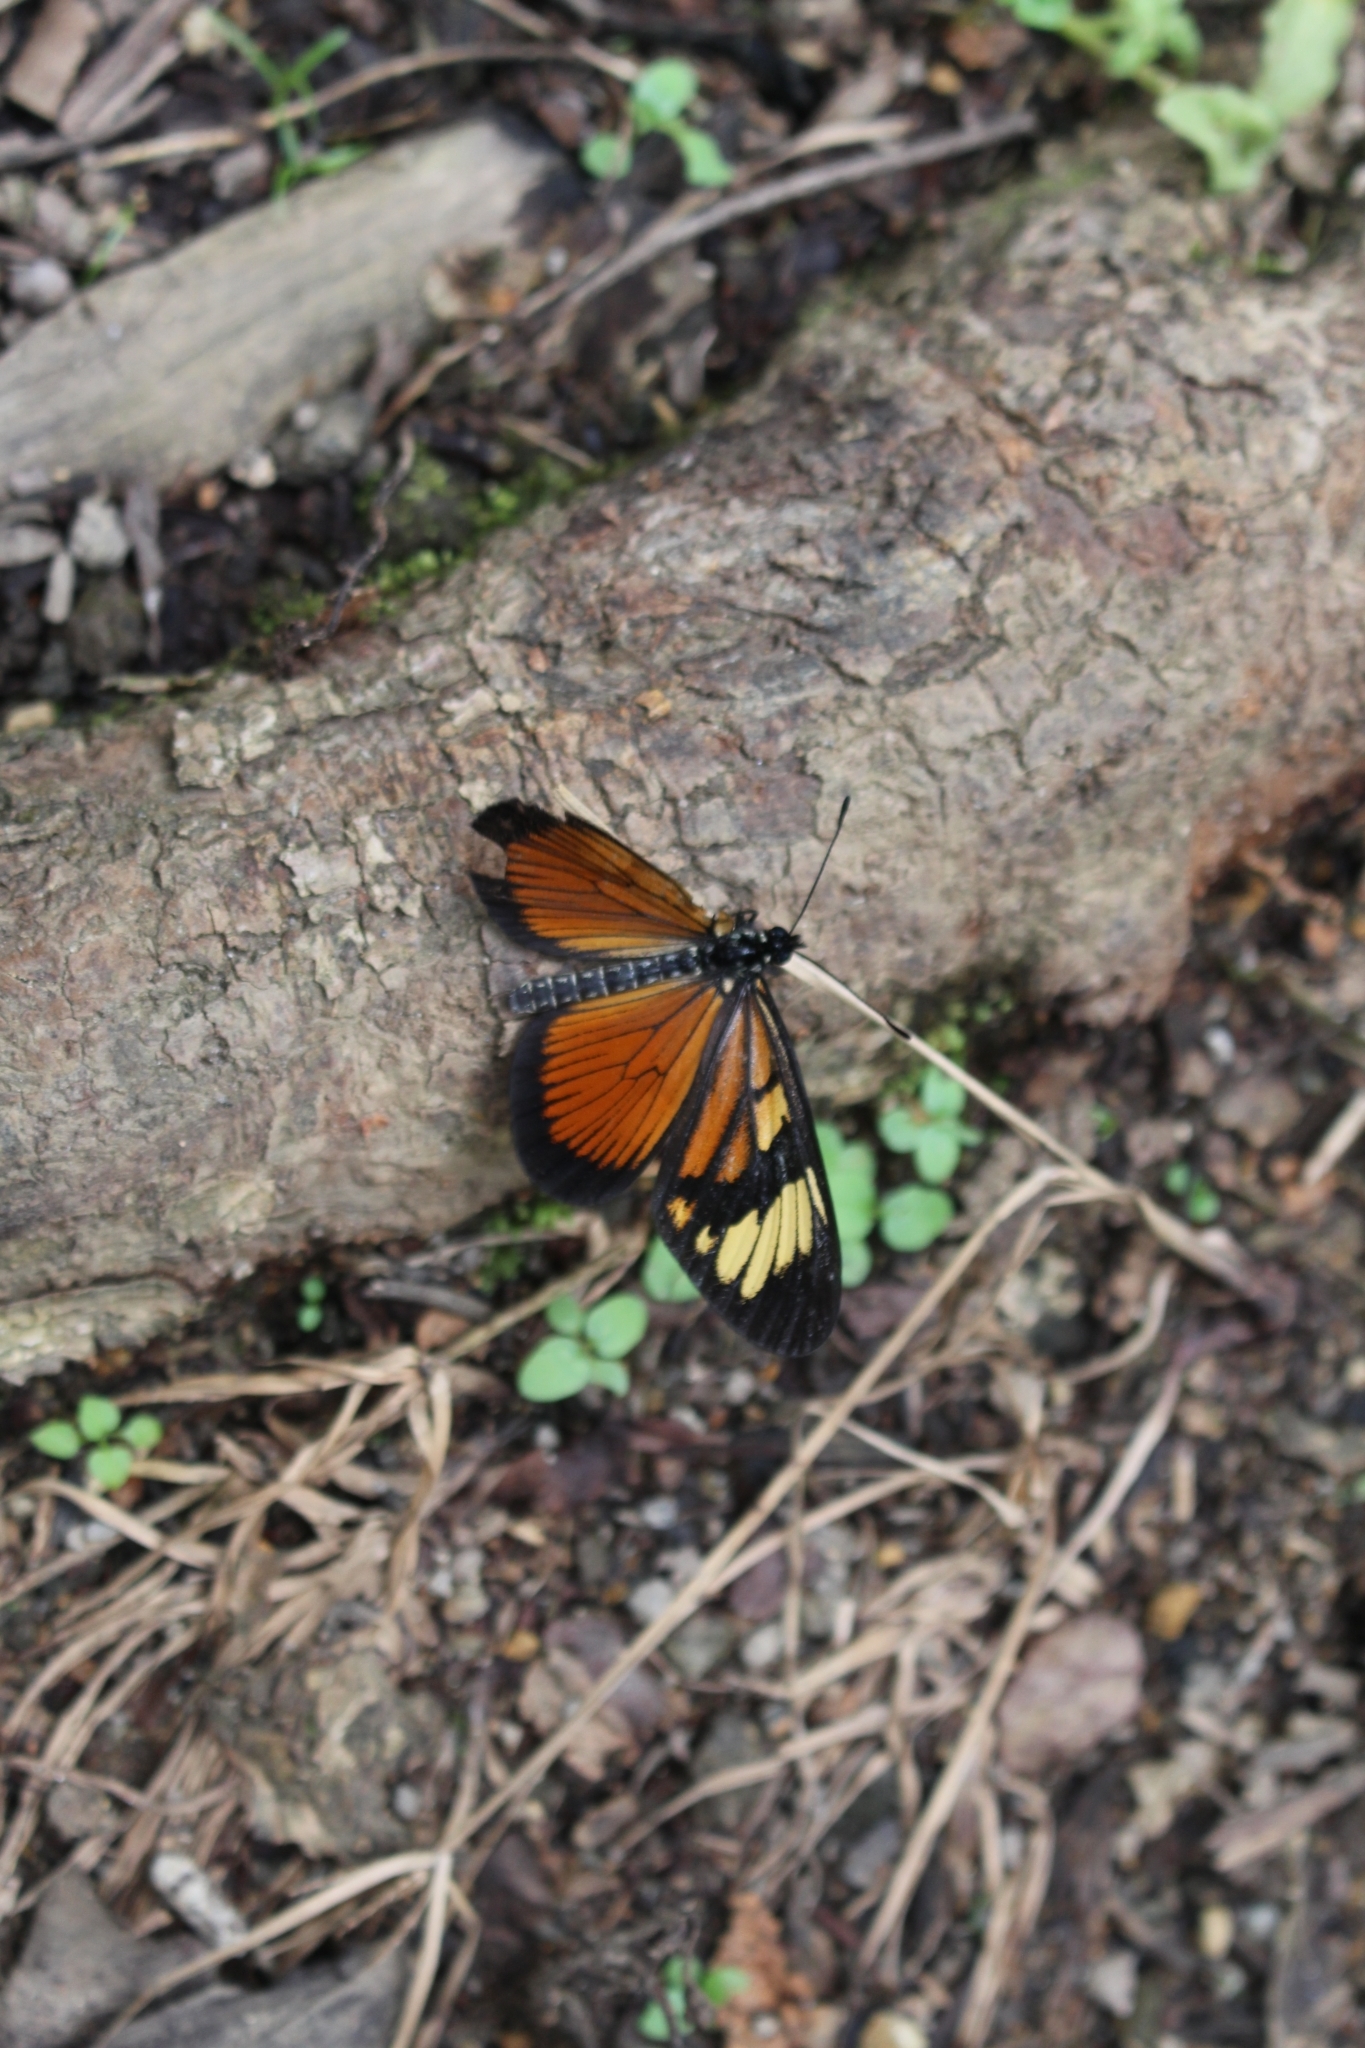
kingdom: Animalia
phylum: Arthropoda
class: Insecta
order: Lepidoptera
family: Nymphalidae
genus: Actinote
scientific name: Actinote anteas
